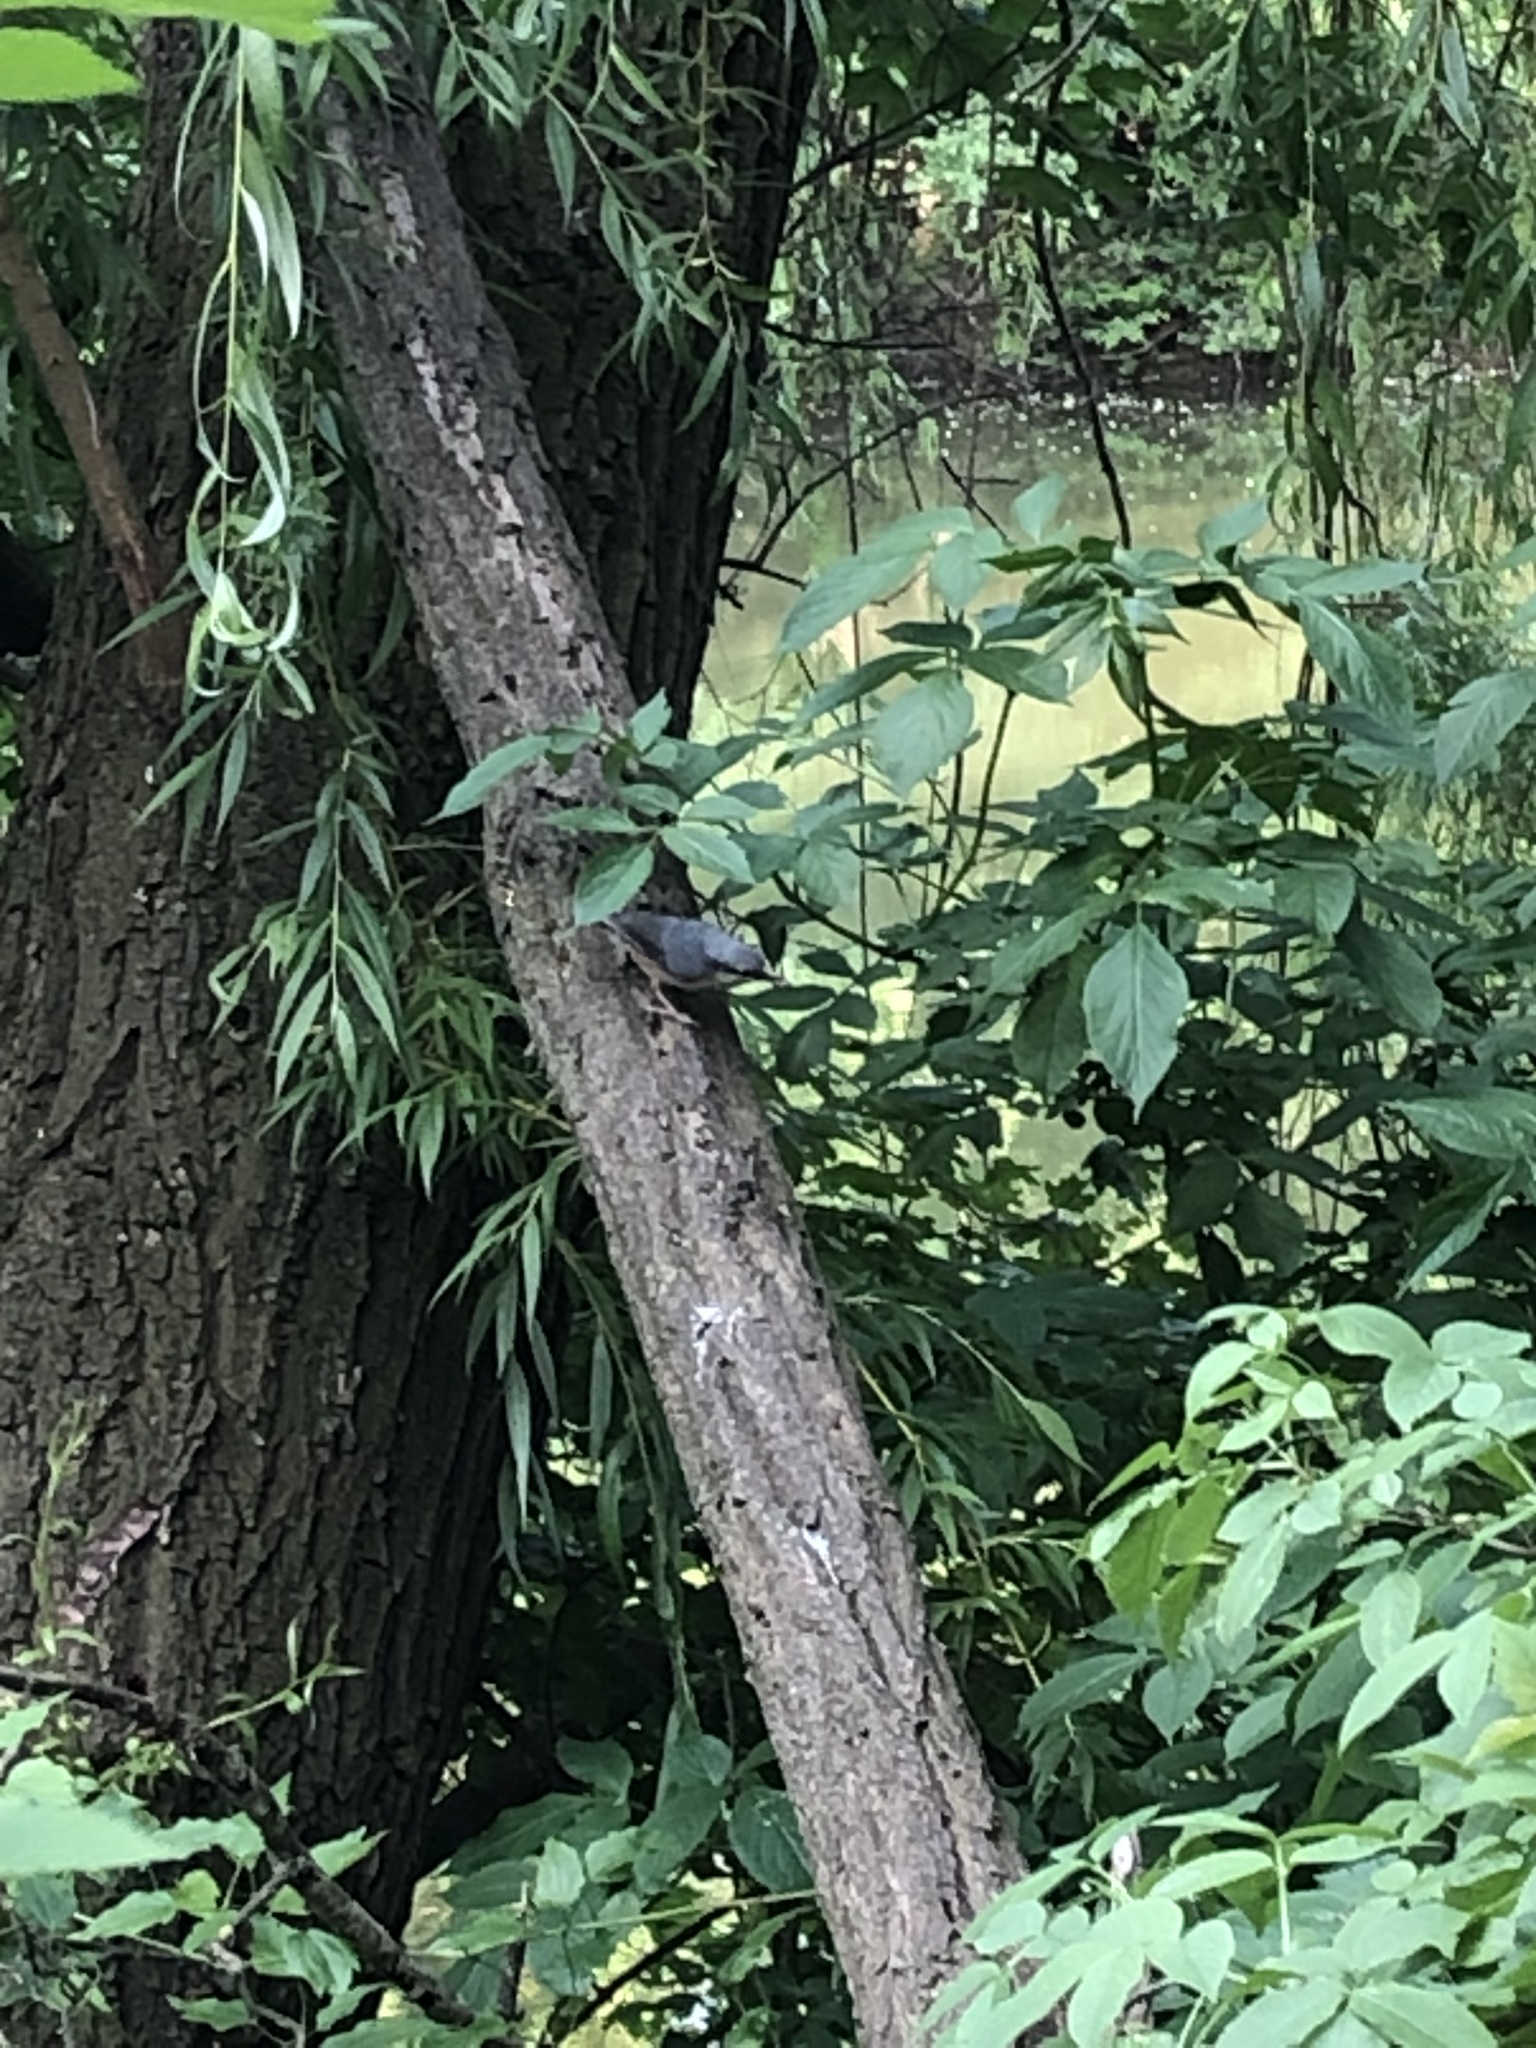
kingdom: Animalia
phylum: Chordata
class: Aves
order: Passeriformes
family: Sittidae
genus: Sitta
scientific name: Sitta europaea
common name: Eurasian nuthatch
